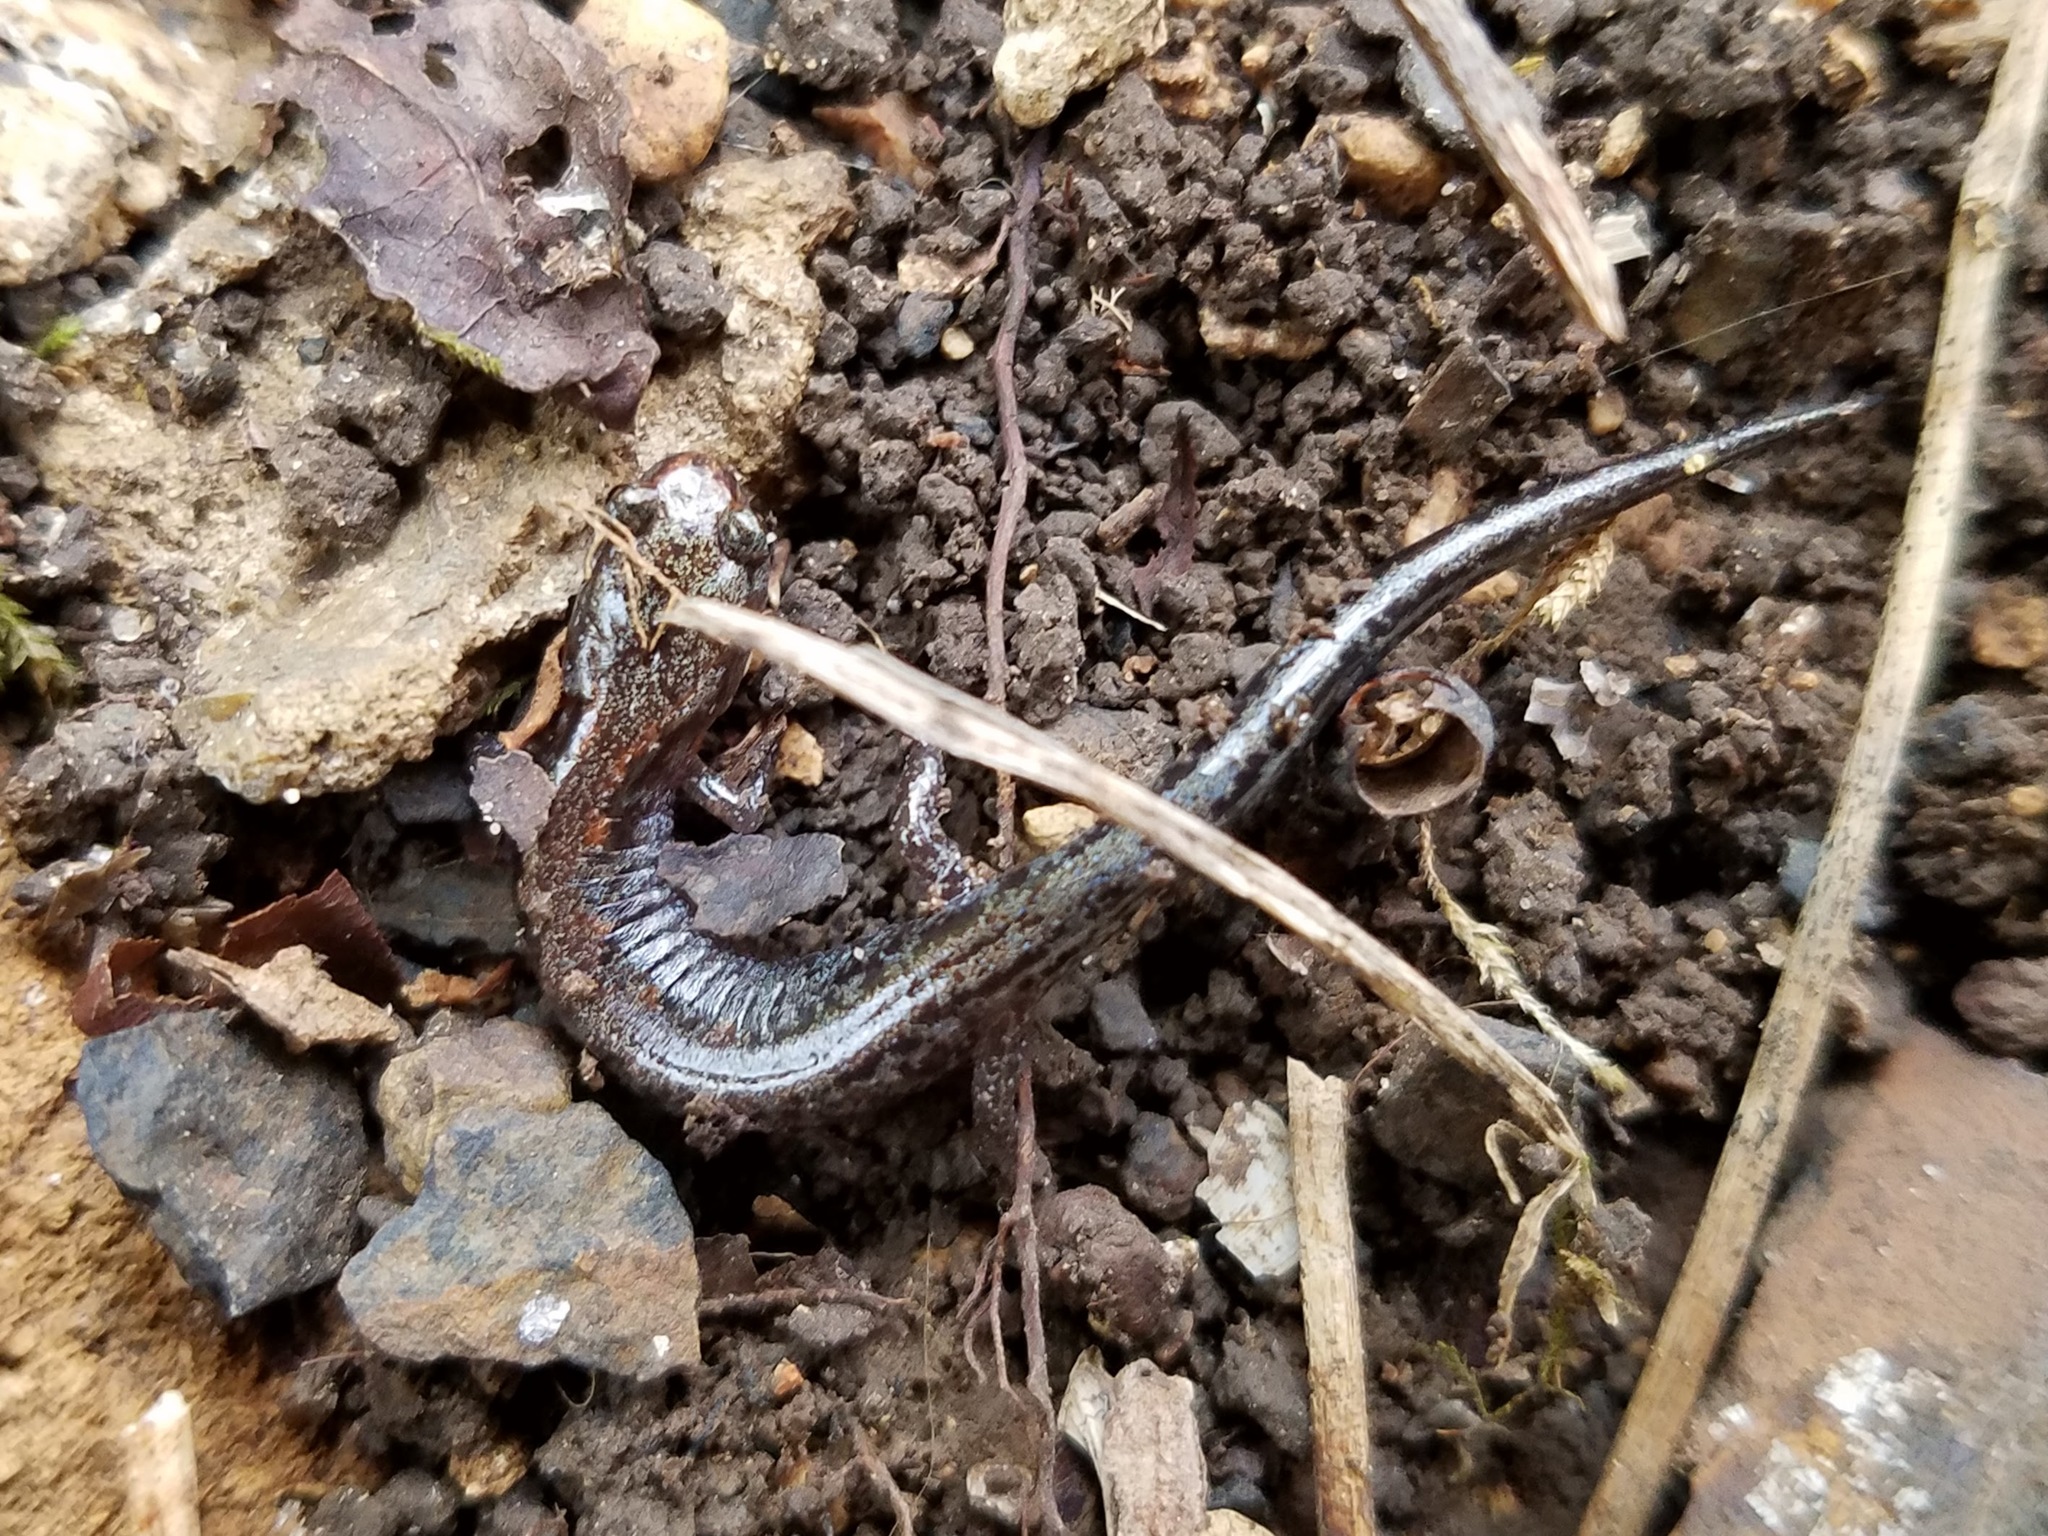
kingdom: Animalia
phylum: Chordata
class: Amphibia
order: Caudata
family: Plethodontidae
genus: Plethodon
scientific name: Plethodon ventralis
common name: Southern zigzag salamander
